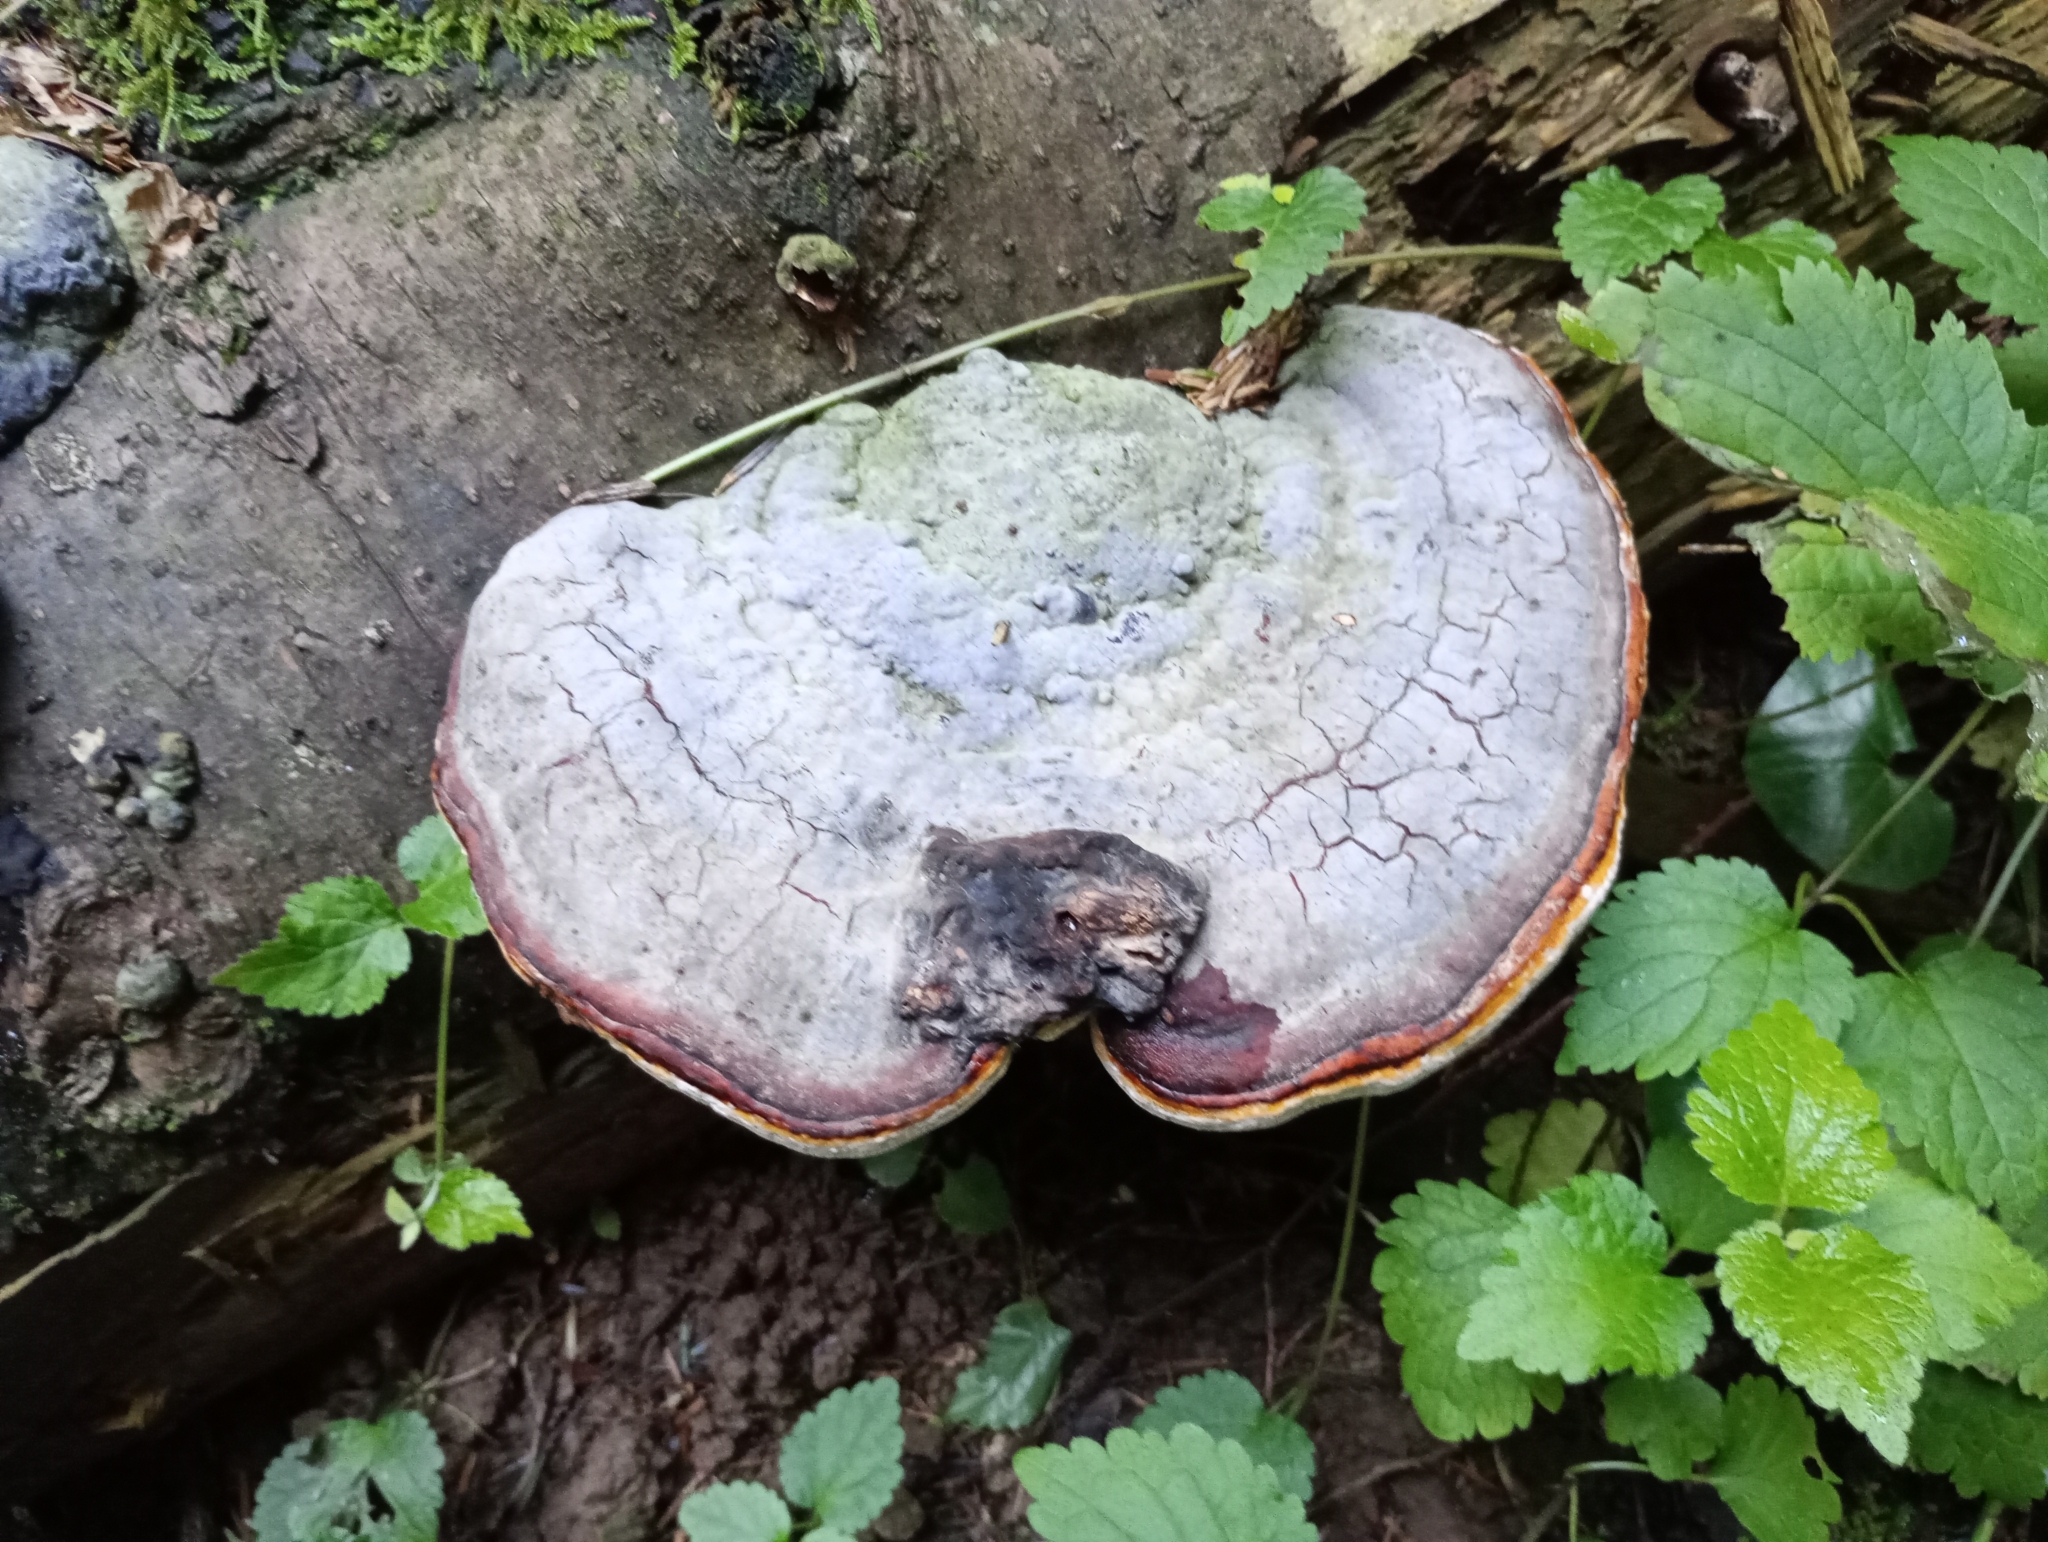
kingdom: Fungi
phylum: Basidiomycota
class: Agaricomycetes
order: Polyporales
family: Fomitopsidaceae
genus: Fomitopsis
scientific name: Fomitopsis pinicola
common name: Red-belted bracket
